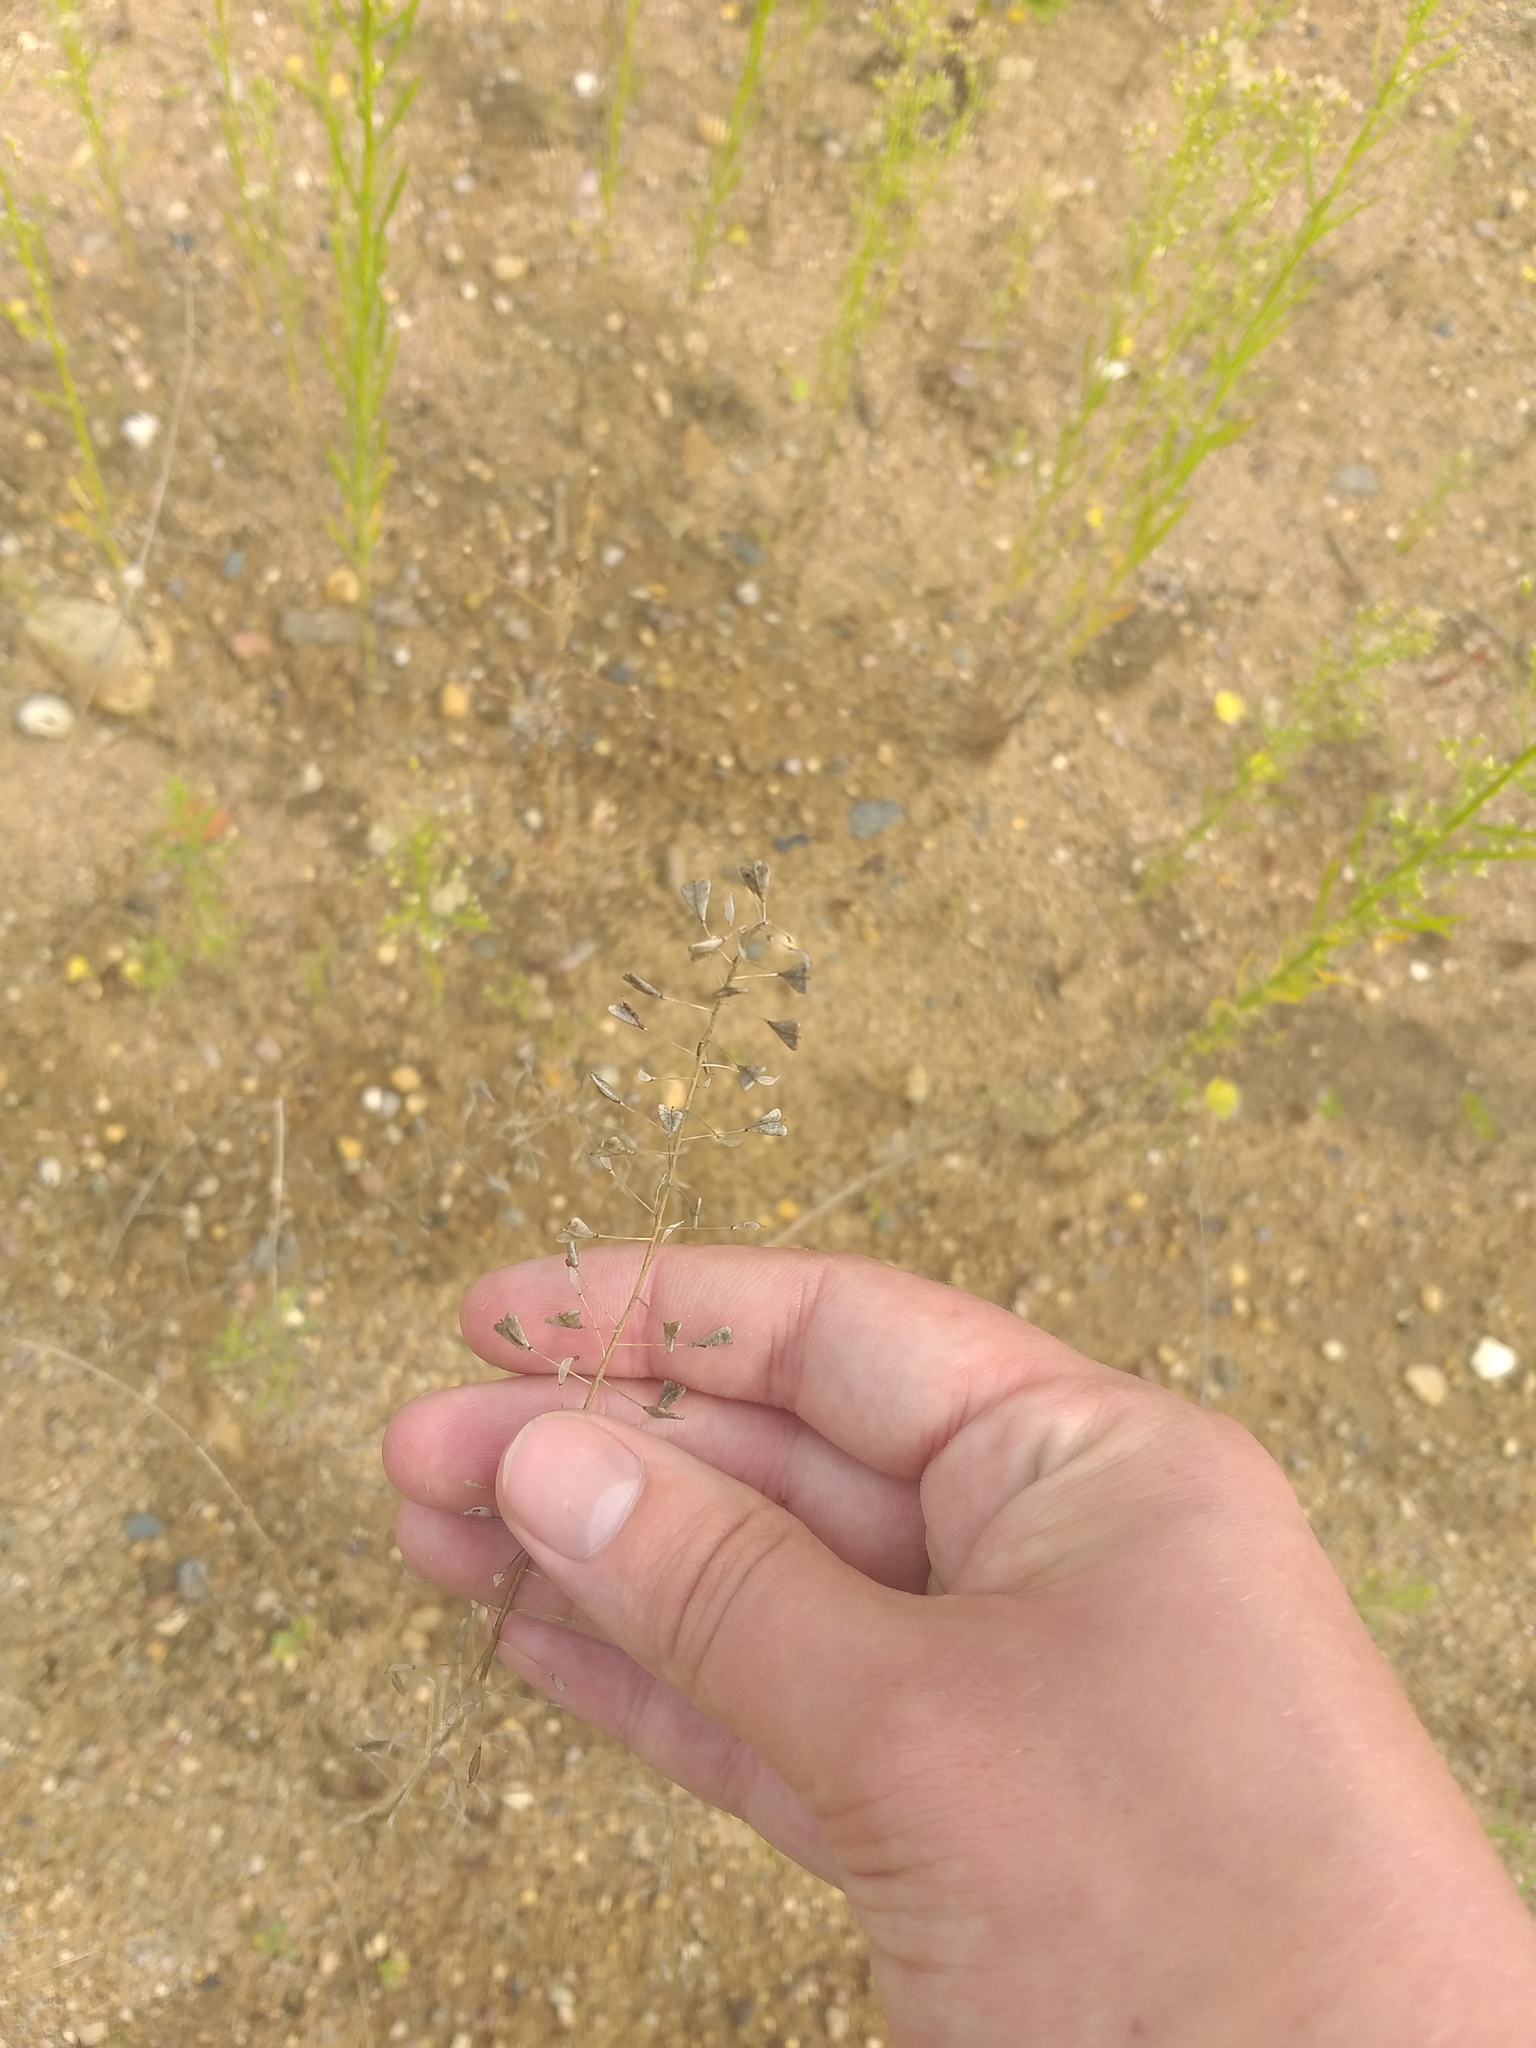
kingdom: Plantae
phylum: Tracheophyta
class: Magnoliopsida
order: Brassicales
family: Brassicaceae
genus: Capsella
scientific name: Capsella bursa-pastoris
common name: Shepherd's purse
